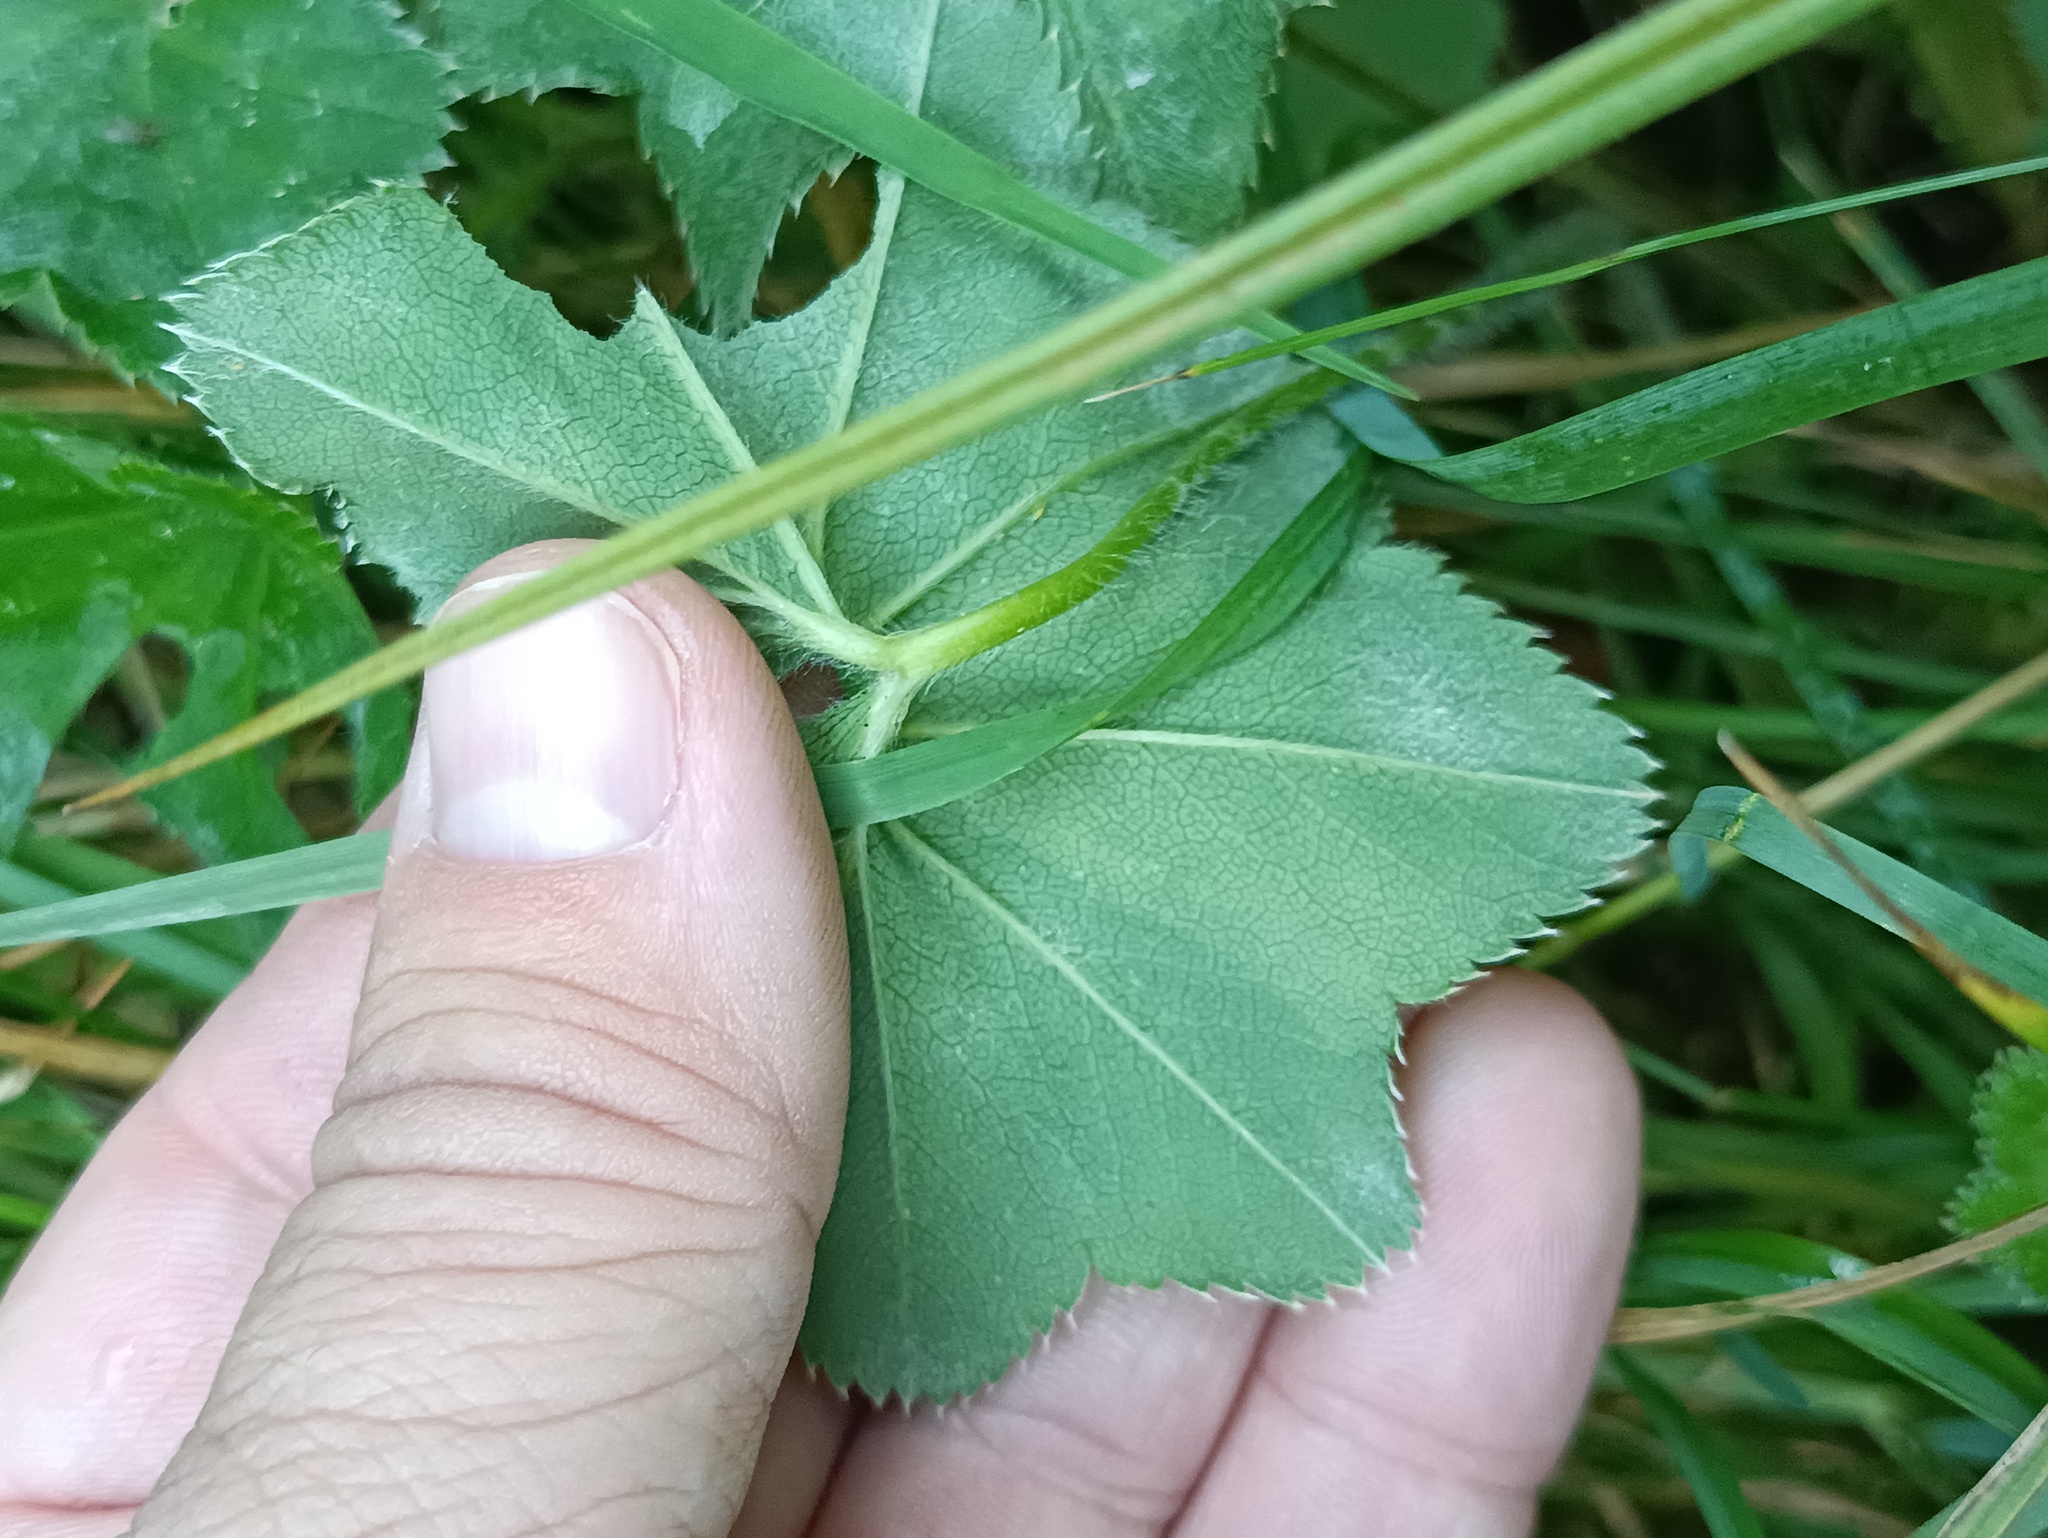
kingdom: Plantae
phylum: Tracheophyta
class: Magnoliopsida
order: Rosales
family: Rosaceae
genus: Alchemilla
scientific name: Alchemilla micans
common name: Gleaming lady's mantle
